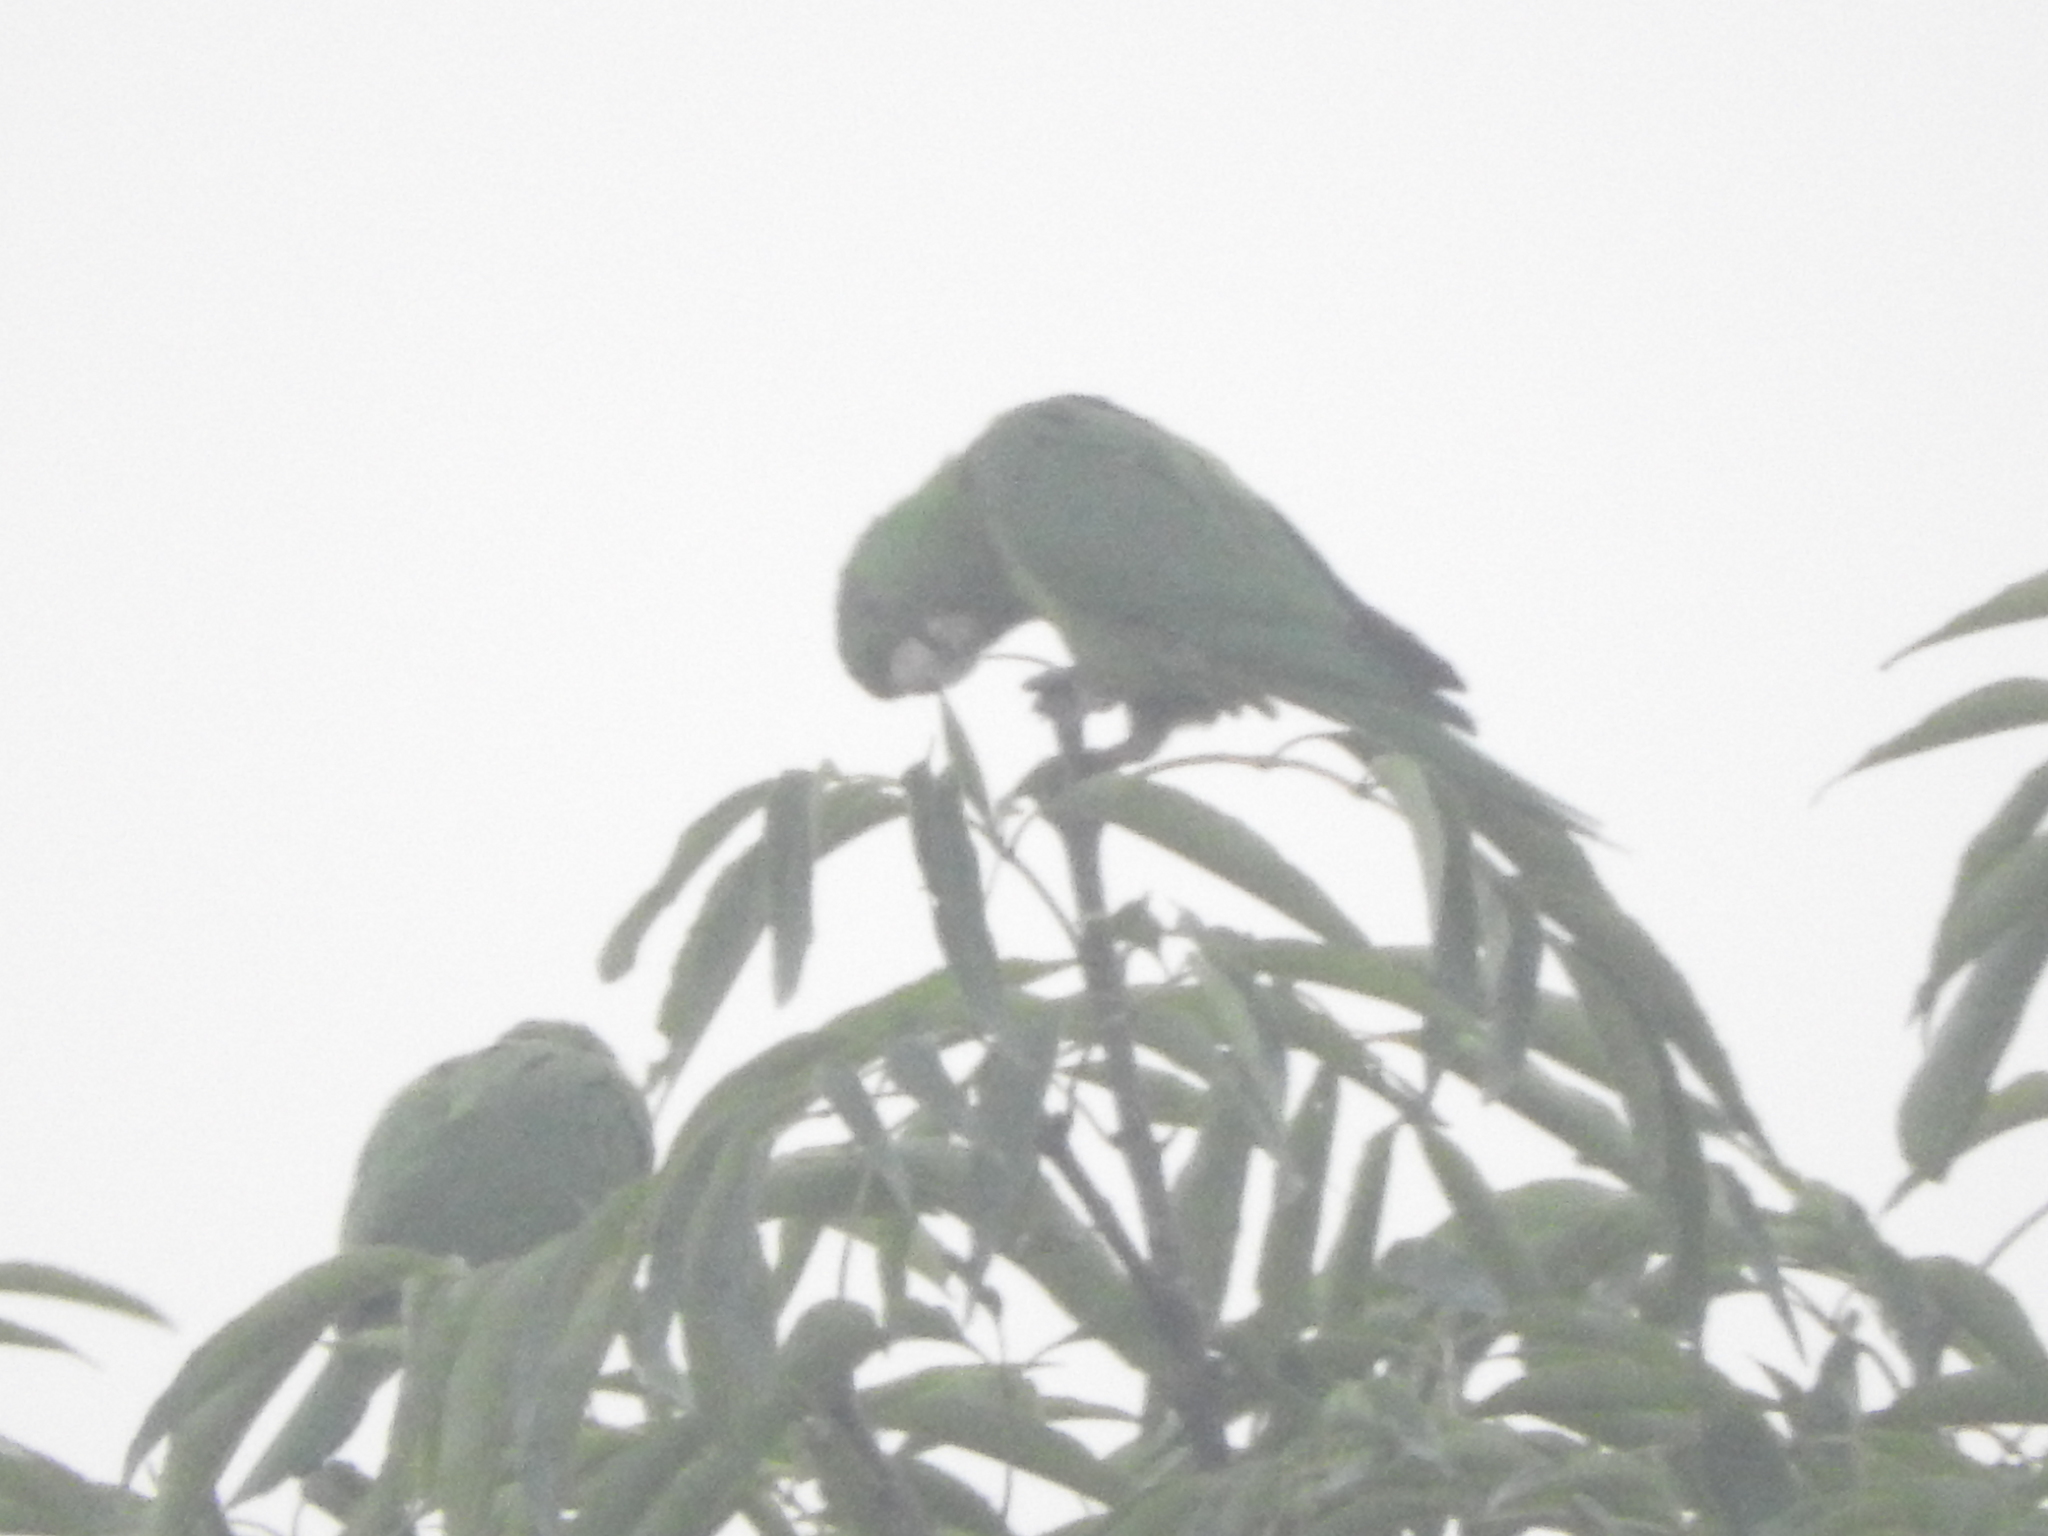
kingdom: Animalia
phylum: Chordata
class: Aves
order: Psittaciformes
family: Psittacidae
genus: Aratinga
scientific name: Aratinga holochlora
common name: Green parakeet
